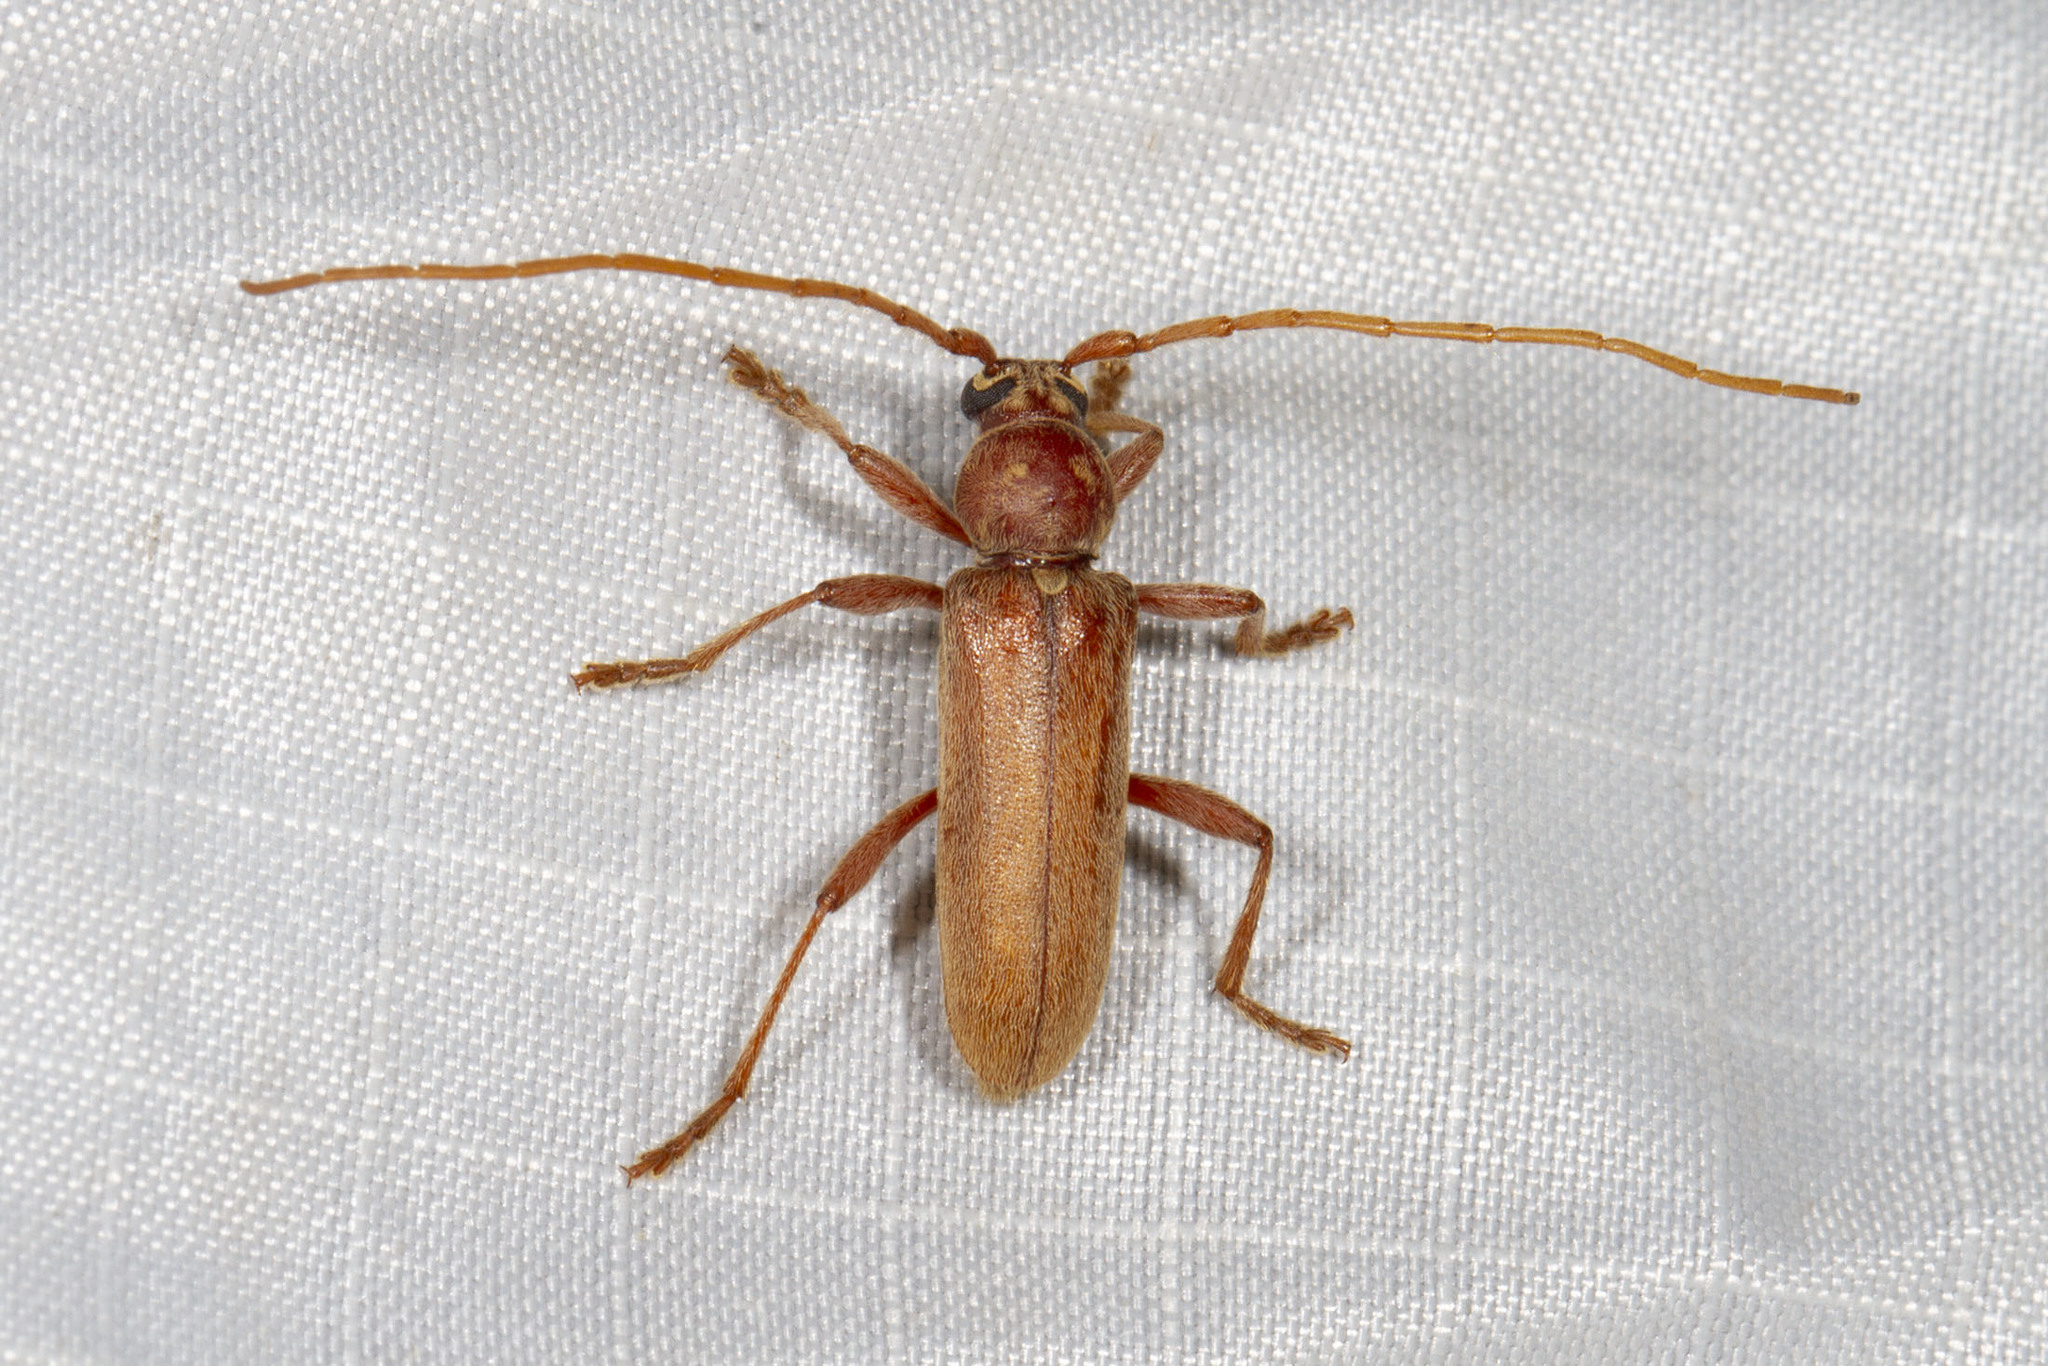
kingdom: Animalia
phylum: Arthropoda
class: Insecta
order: Coleoptera
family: Cerambycidae
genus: Hesperophanes
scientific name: Hesperophanes pubescens
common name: Longhorned wood-boring beetle
